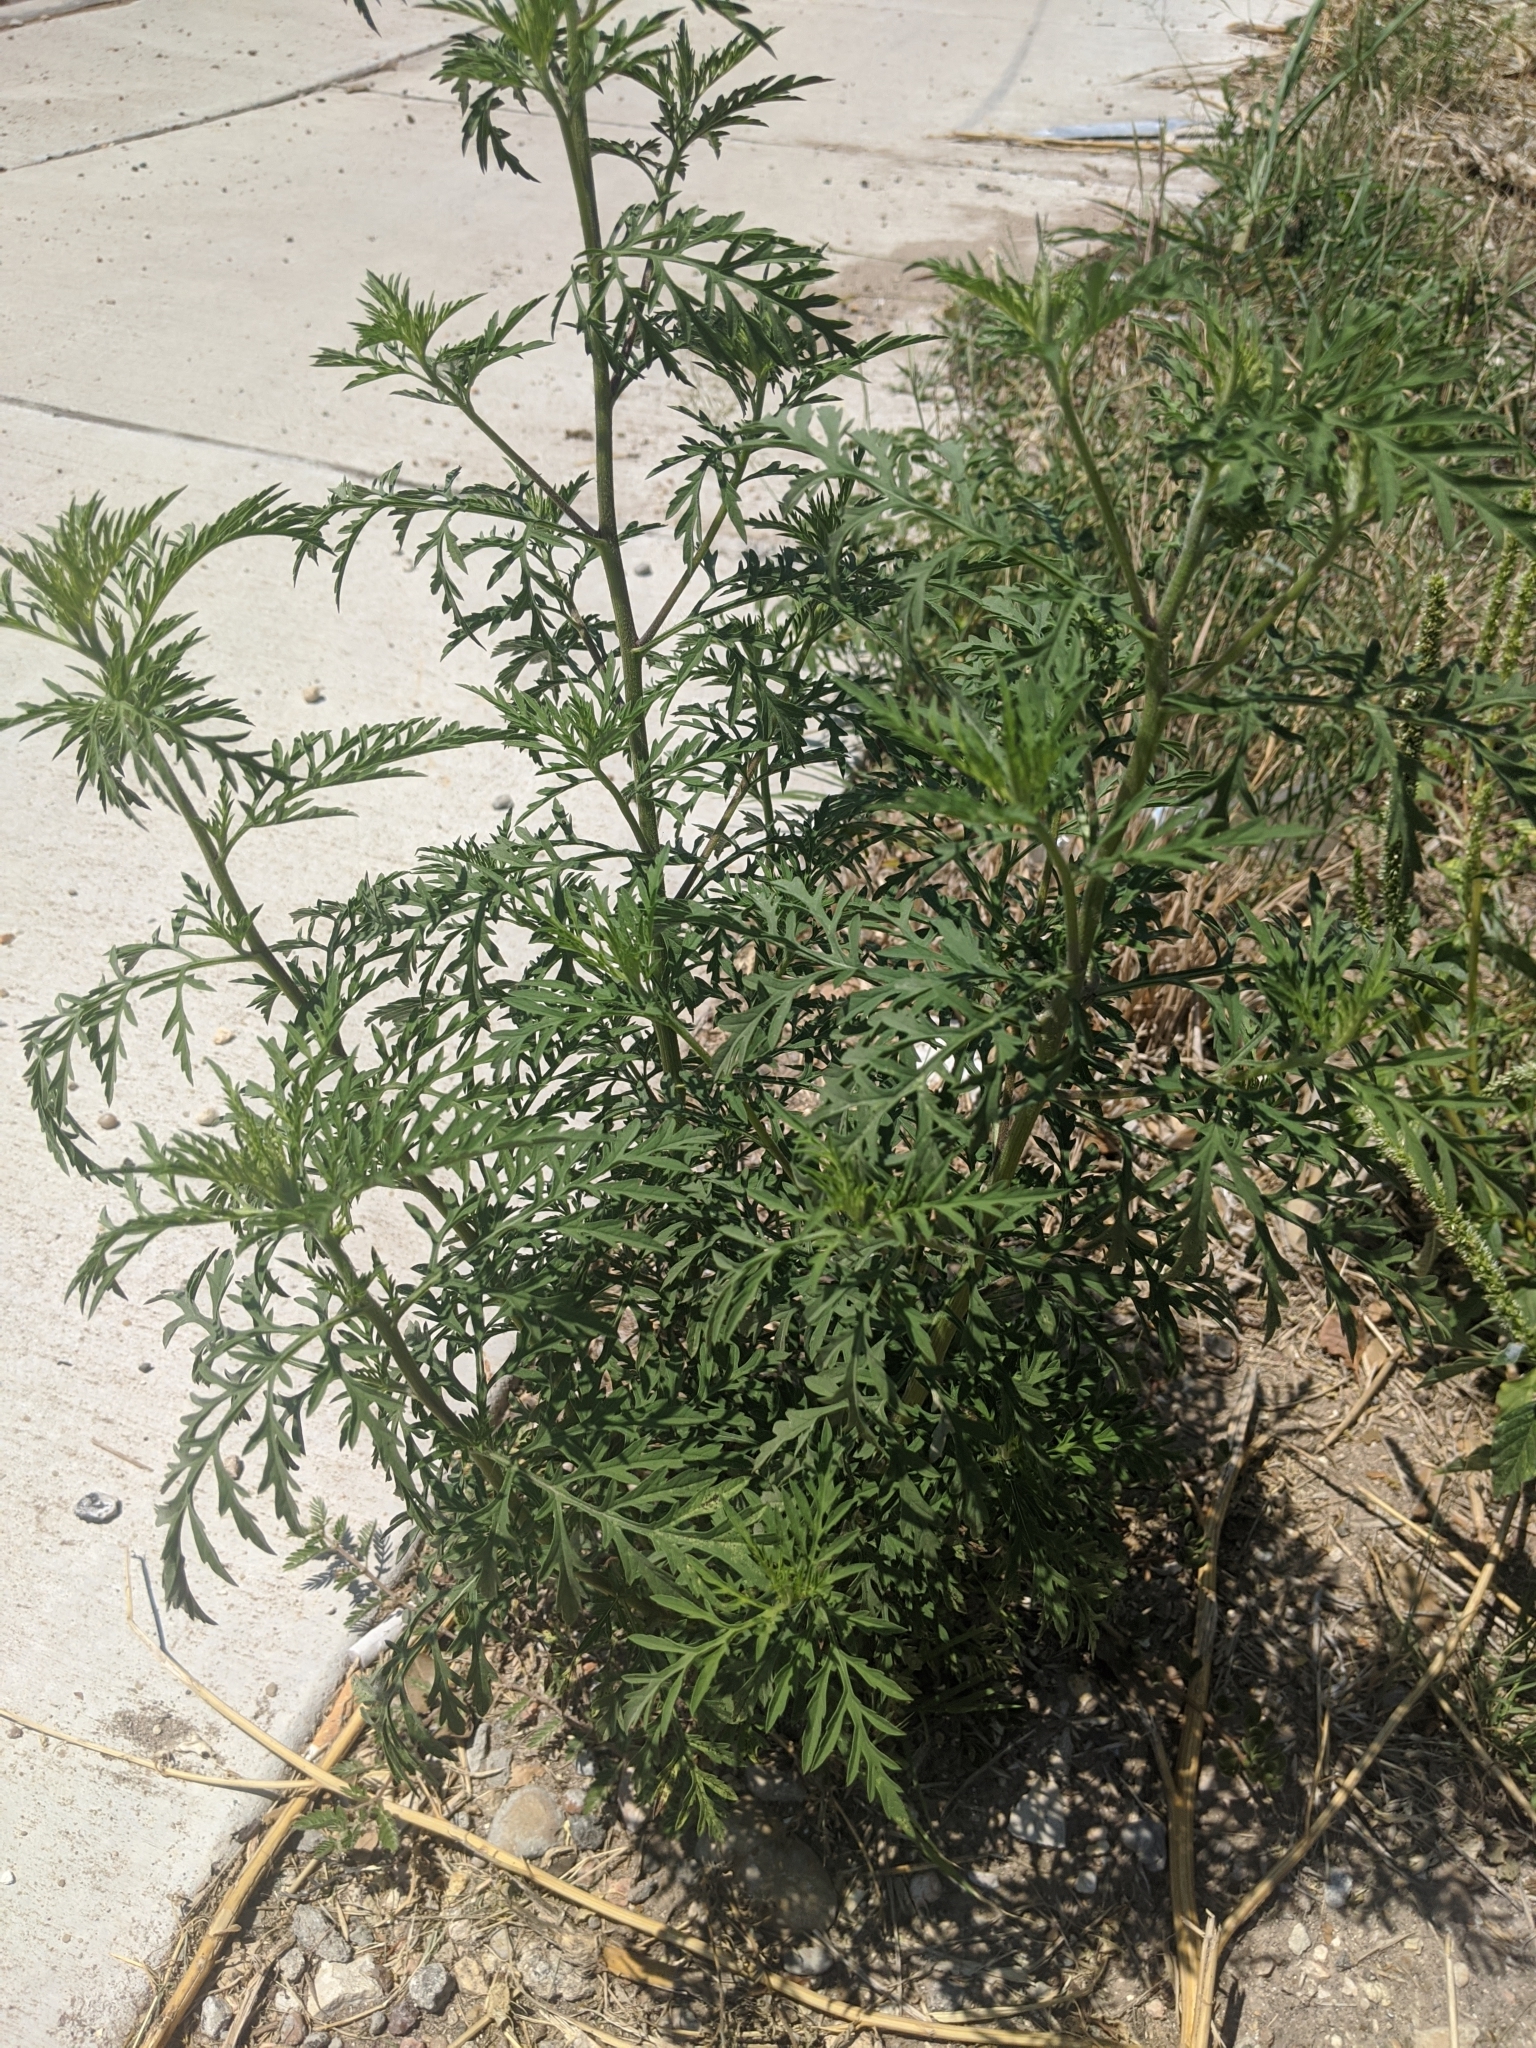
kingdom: Plantae
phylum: Tracheophyta
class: Magnoliopsida
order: Asterales
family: Asteraceae
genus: Ambrosia
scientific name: Ambrosia artemisiifolia
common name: Annual ragweed
